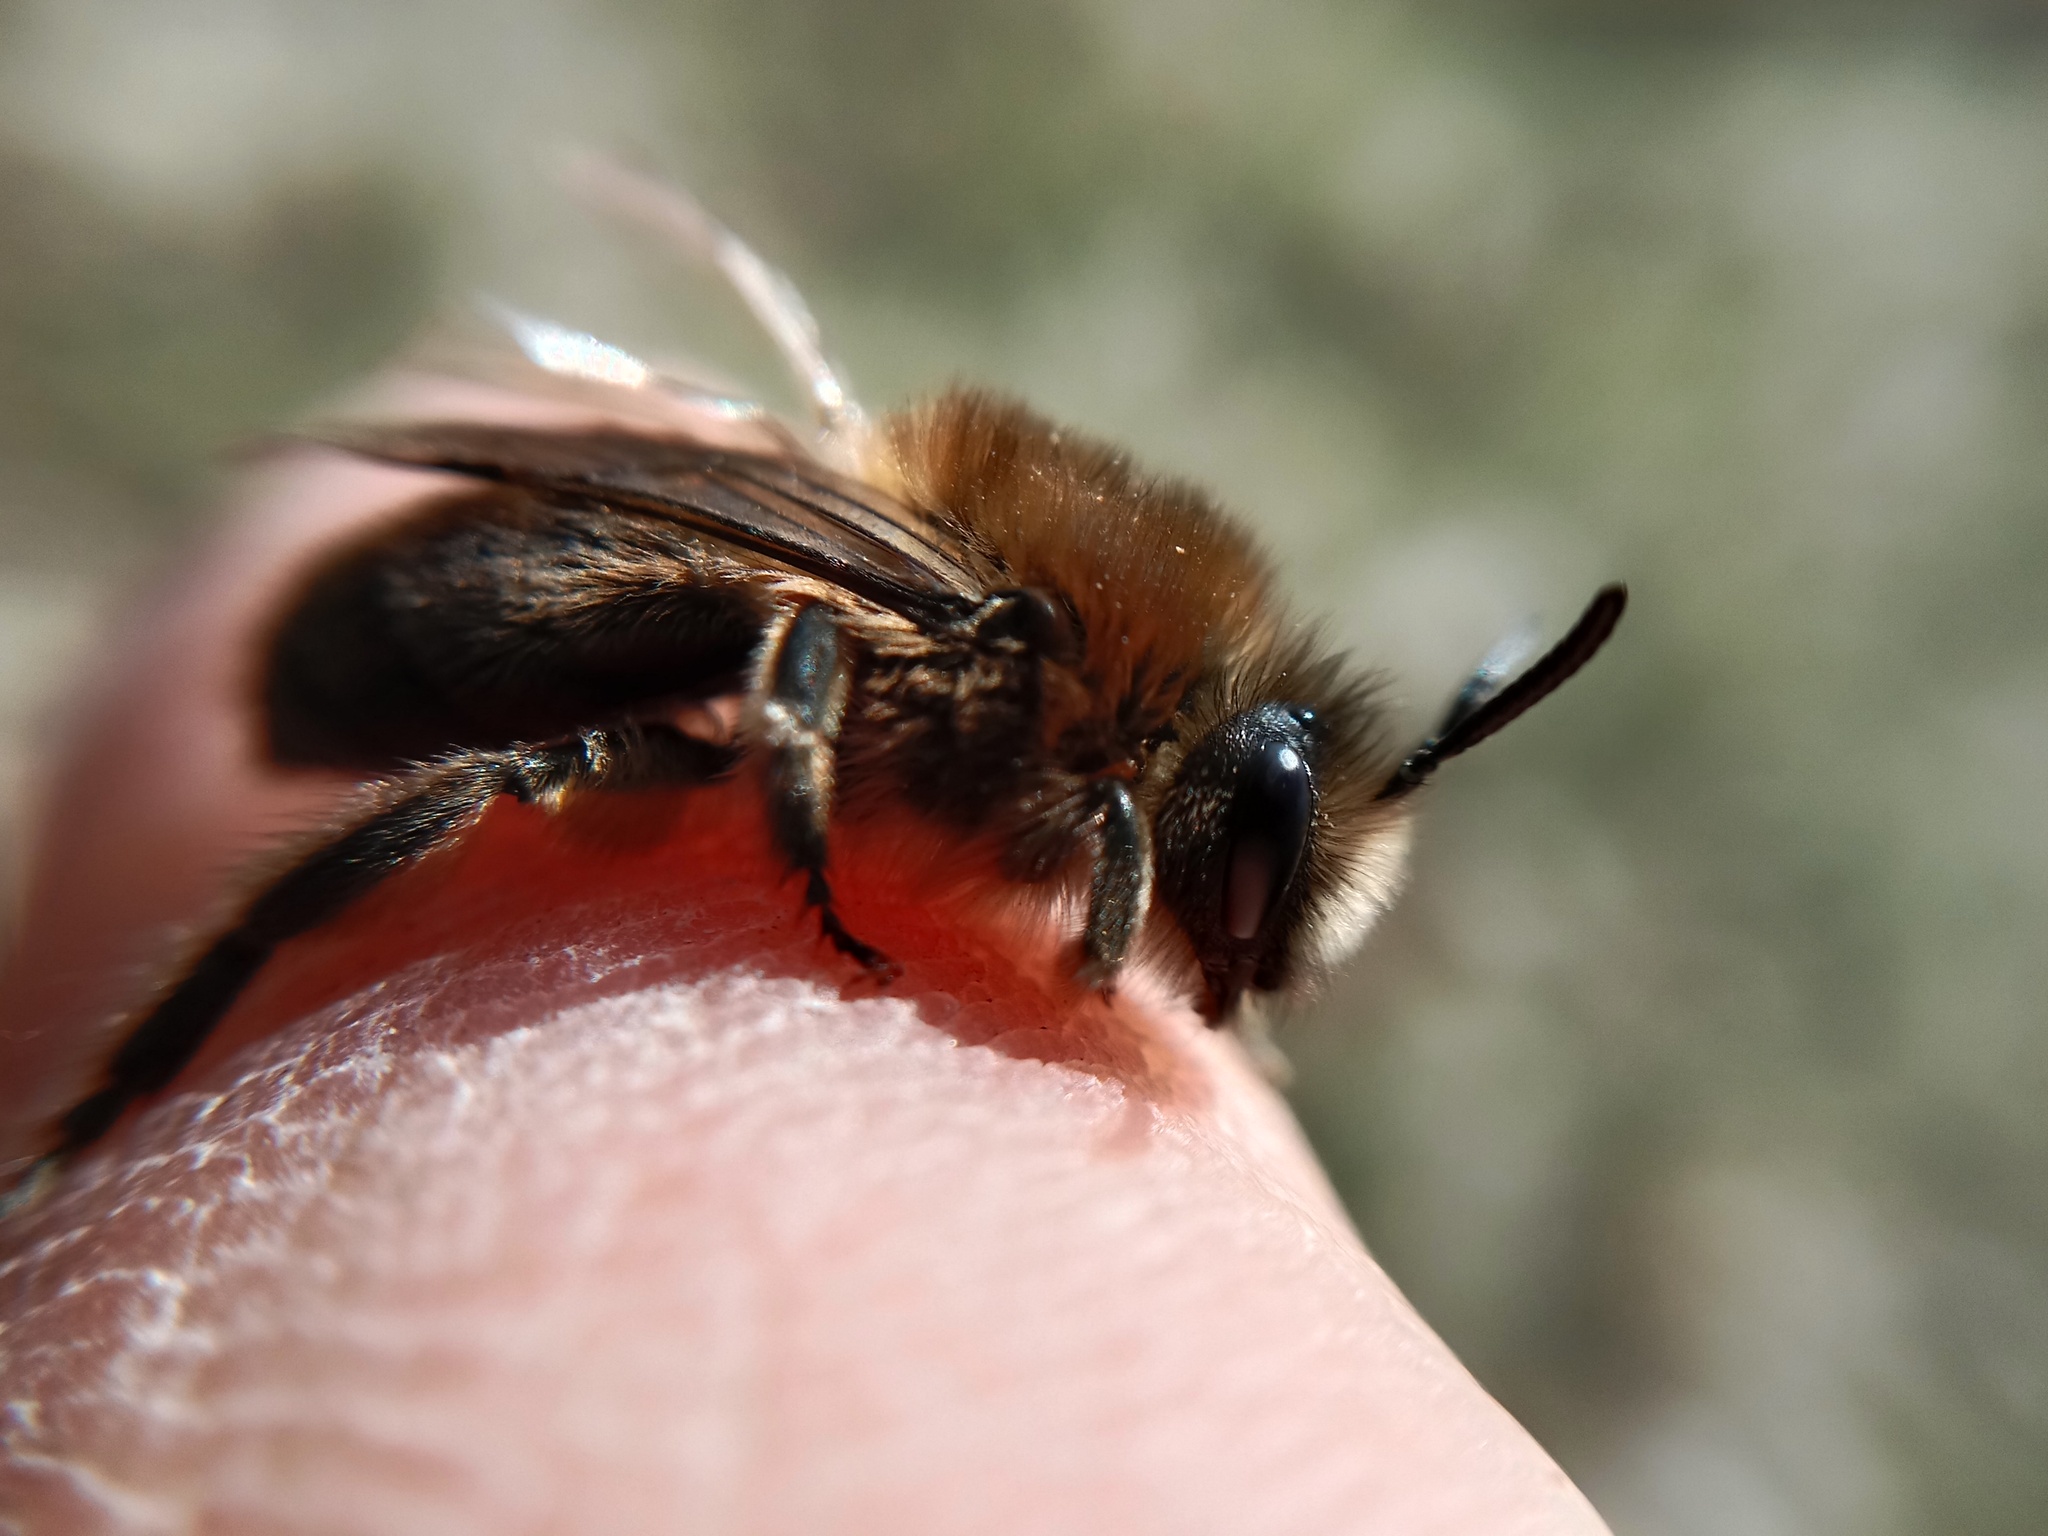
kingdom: Animalia
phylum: Arthropoda
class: Insecta
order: Hymenoptera
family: Colletidae
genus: Colletes
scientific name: Colletes cunicularius
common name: Early colletes
